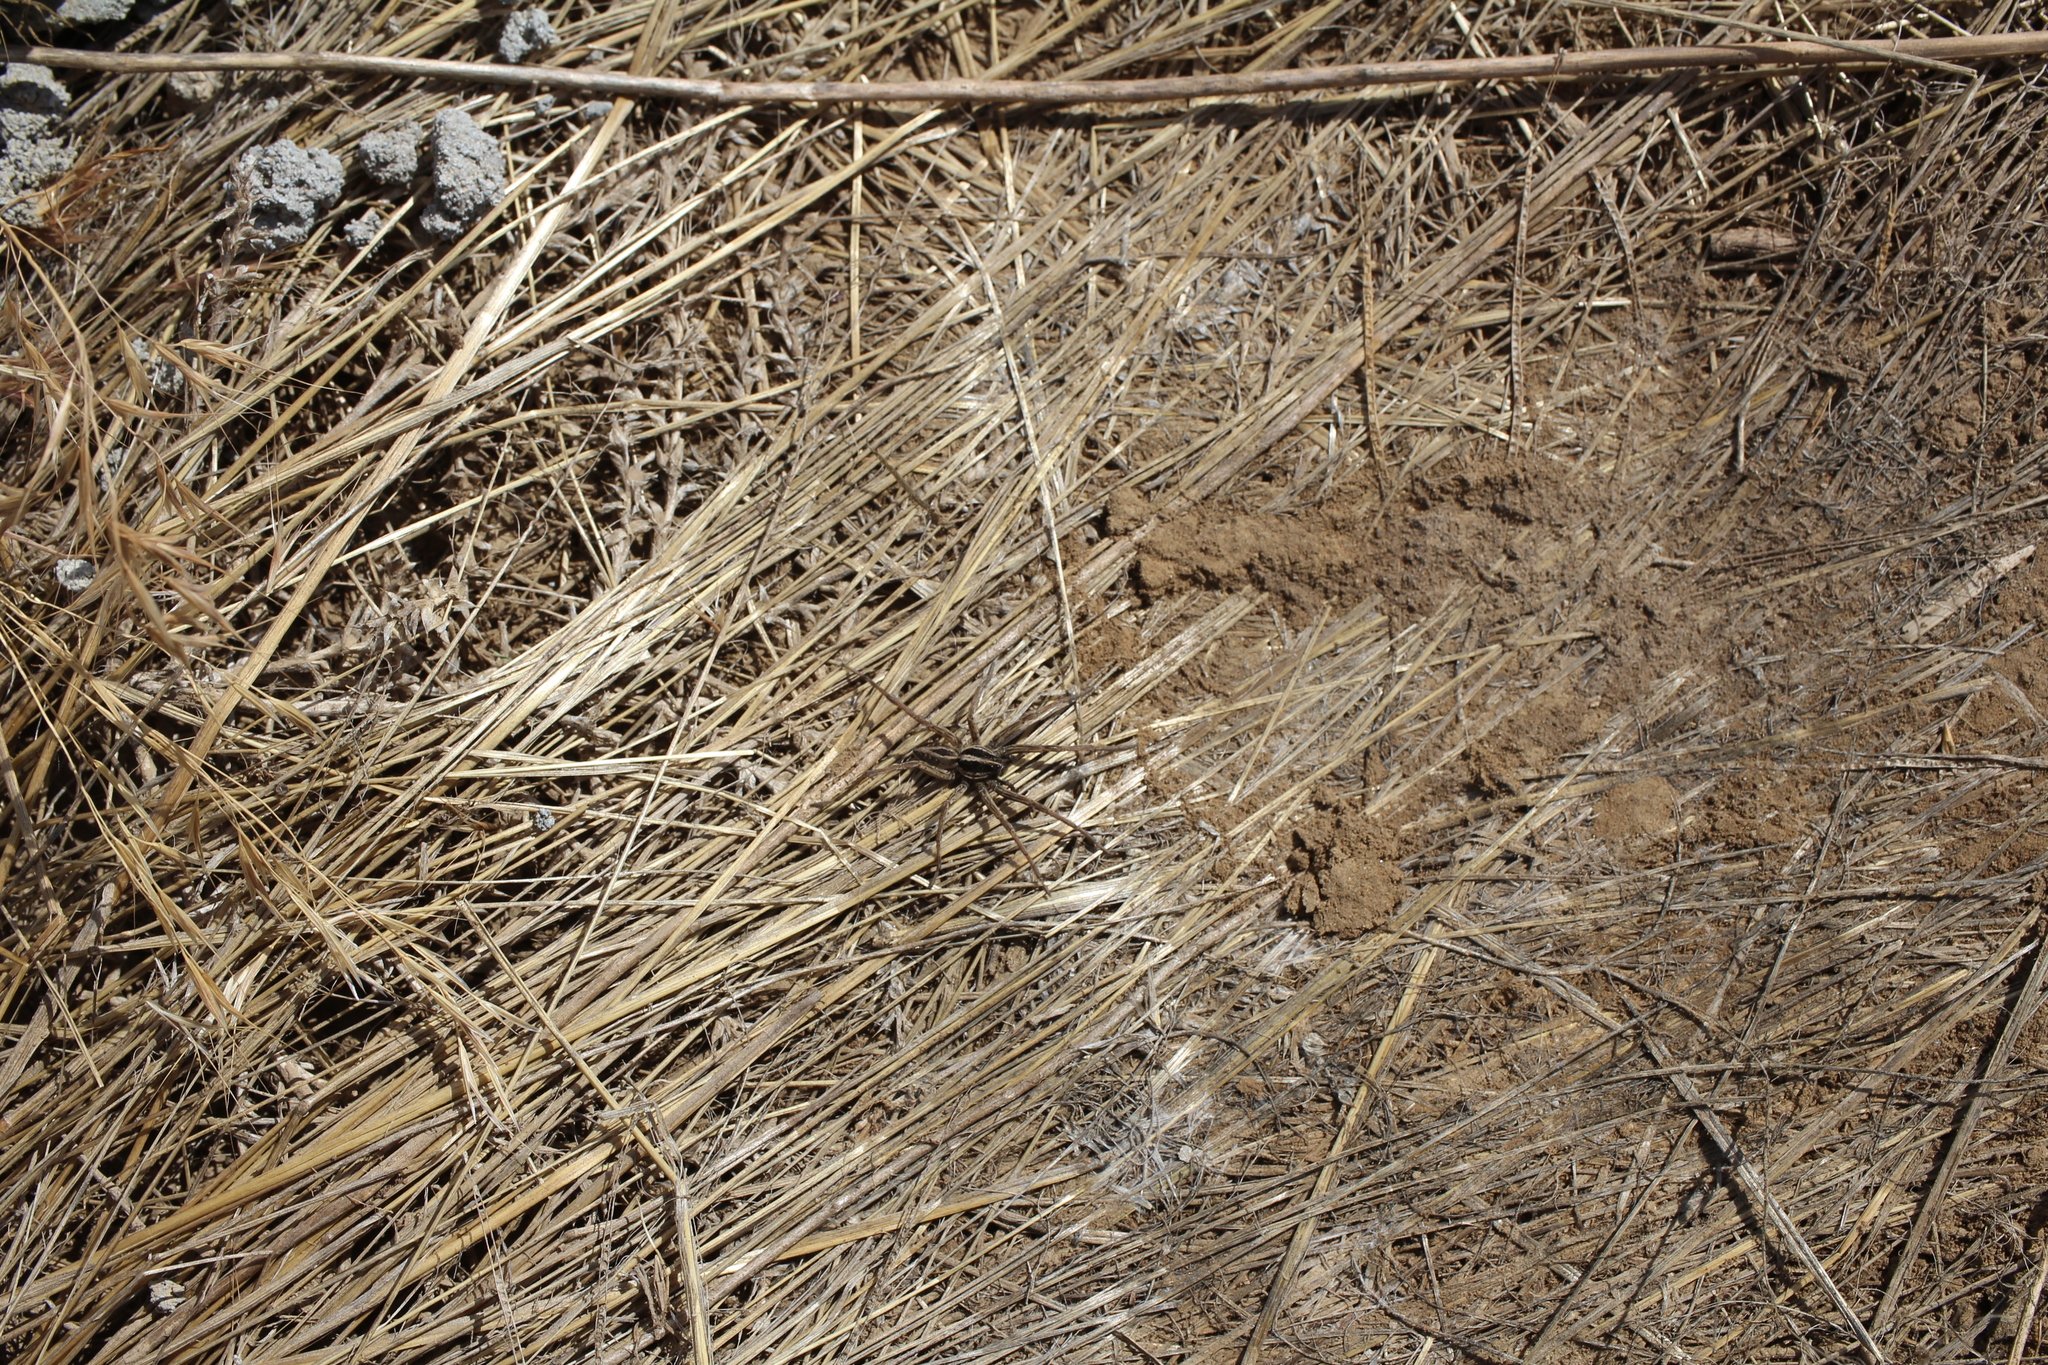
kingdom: Animalia
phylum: Arthropoda
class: Arachnida
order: Araneae
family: Lycosidae
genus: Schizocosa
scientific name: Schizocosa mccooki
